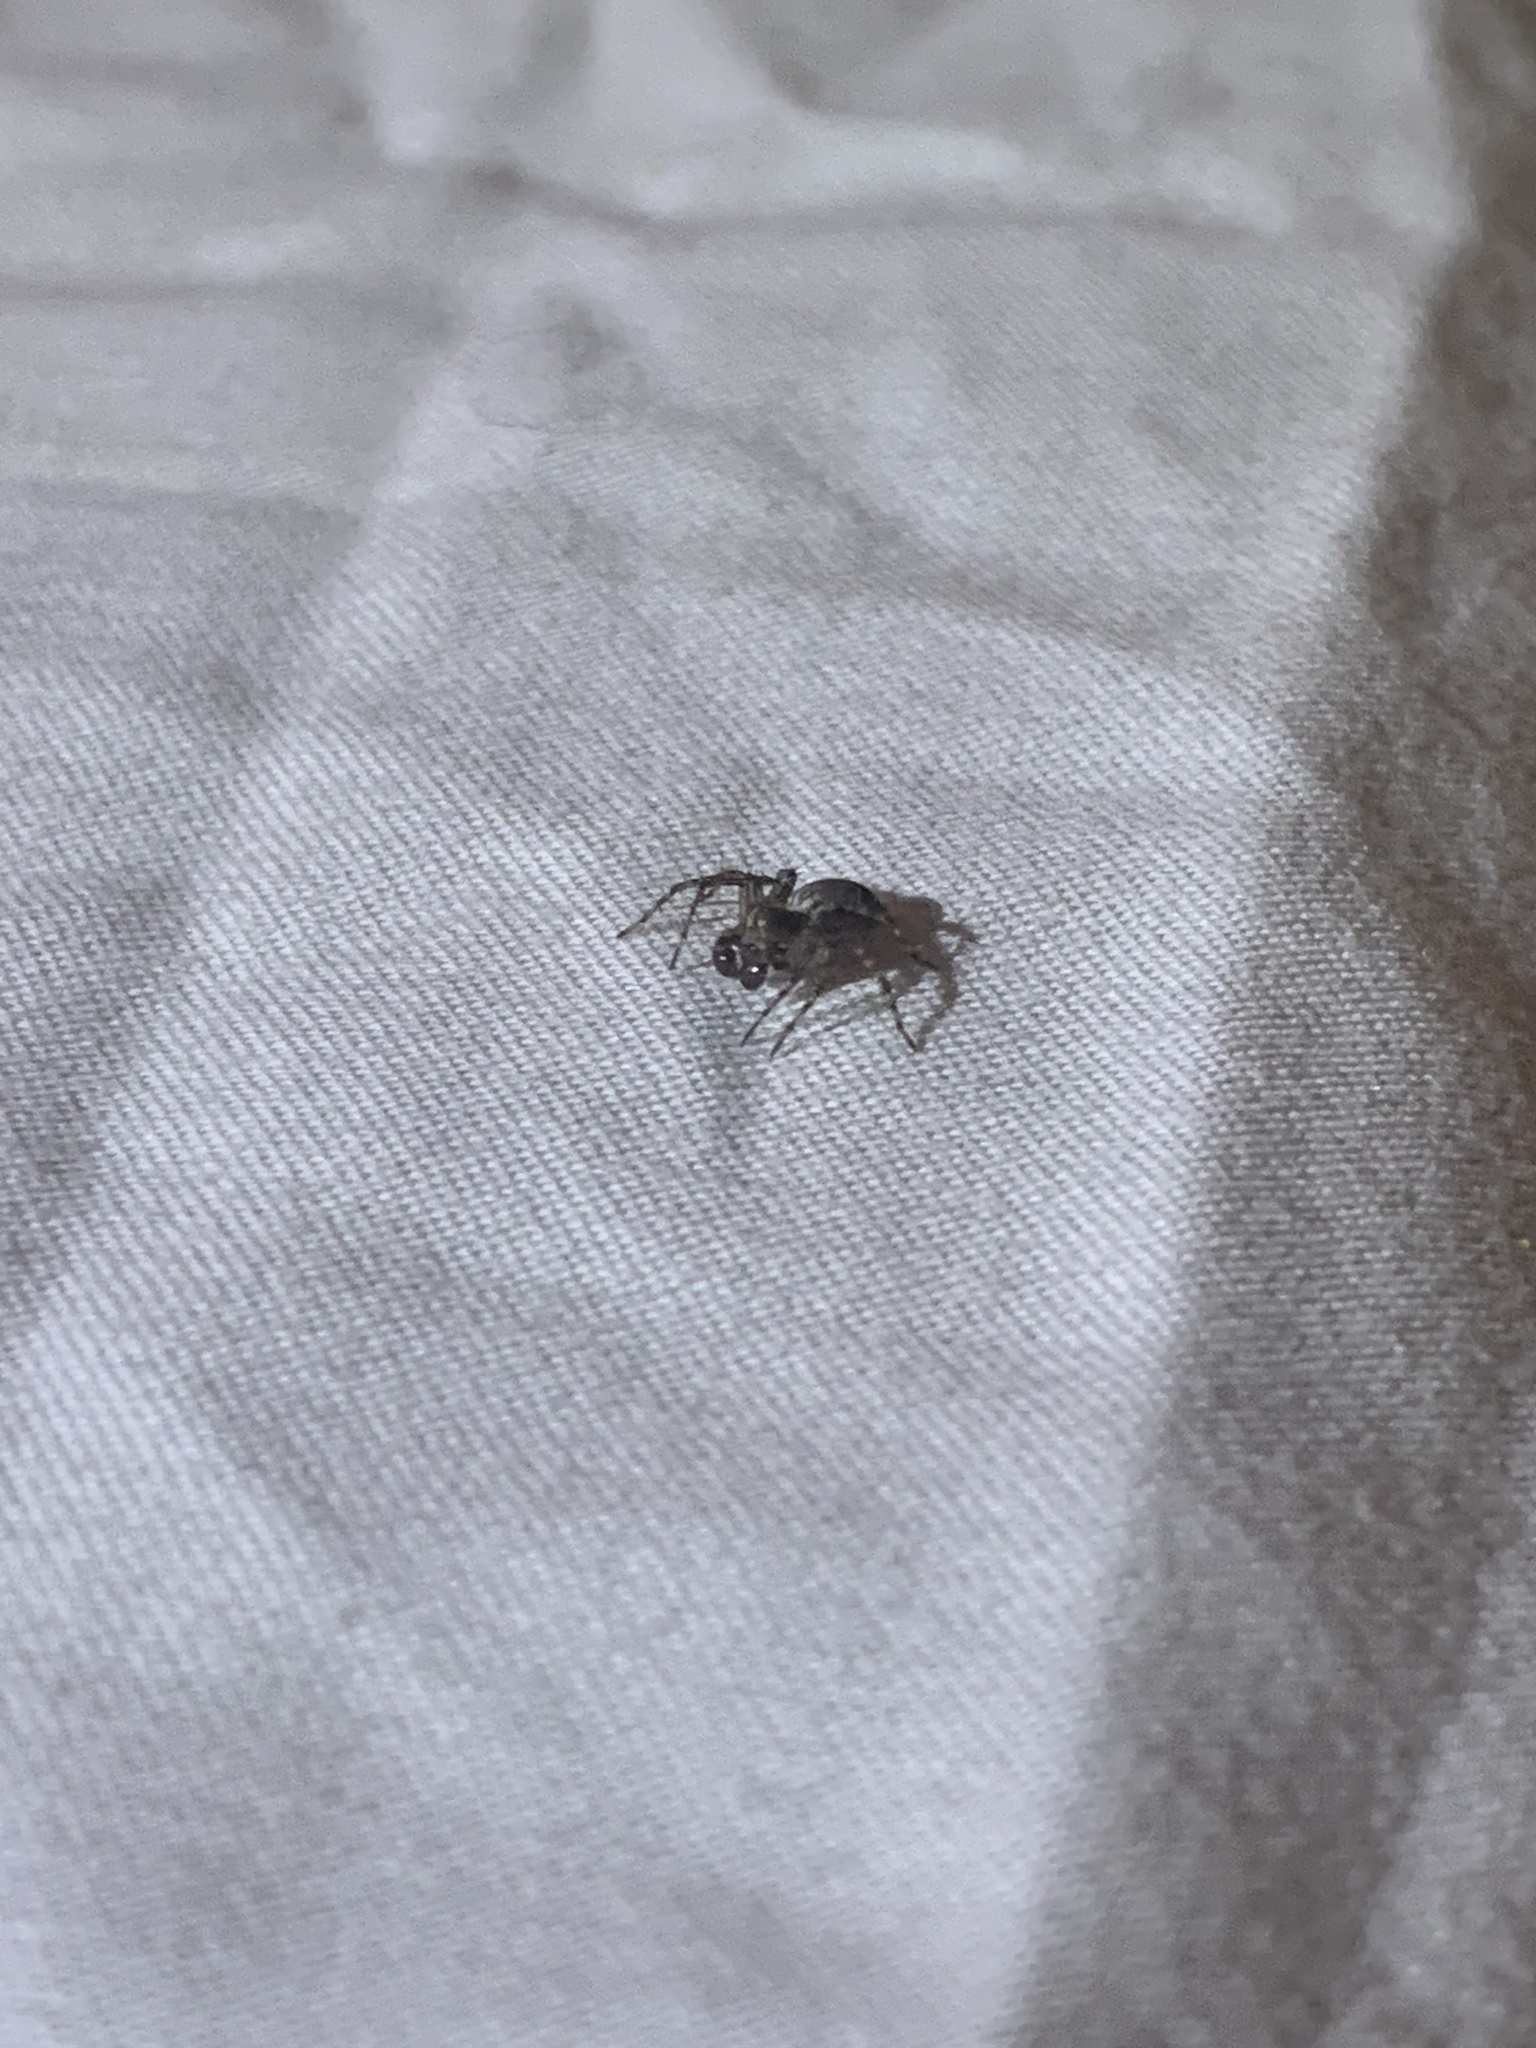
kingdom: Animalia
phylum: Arthropoda
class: Arachnida
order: Araneae
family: Oxyopidae
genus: Oxyopes
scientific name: Oxyopes scalaris
